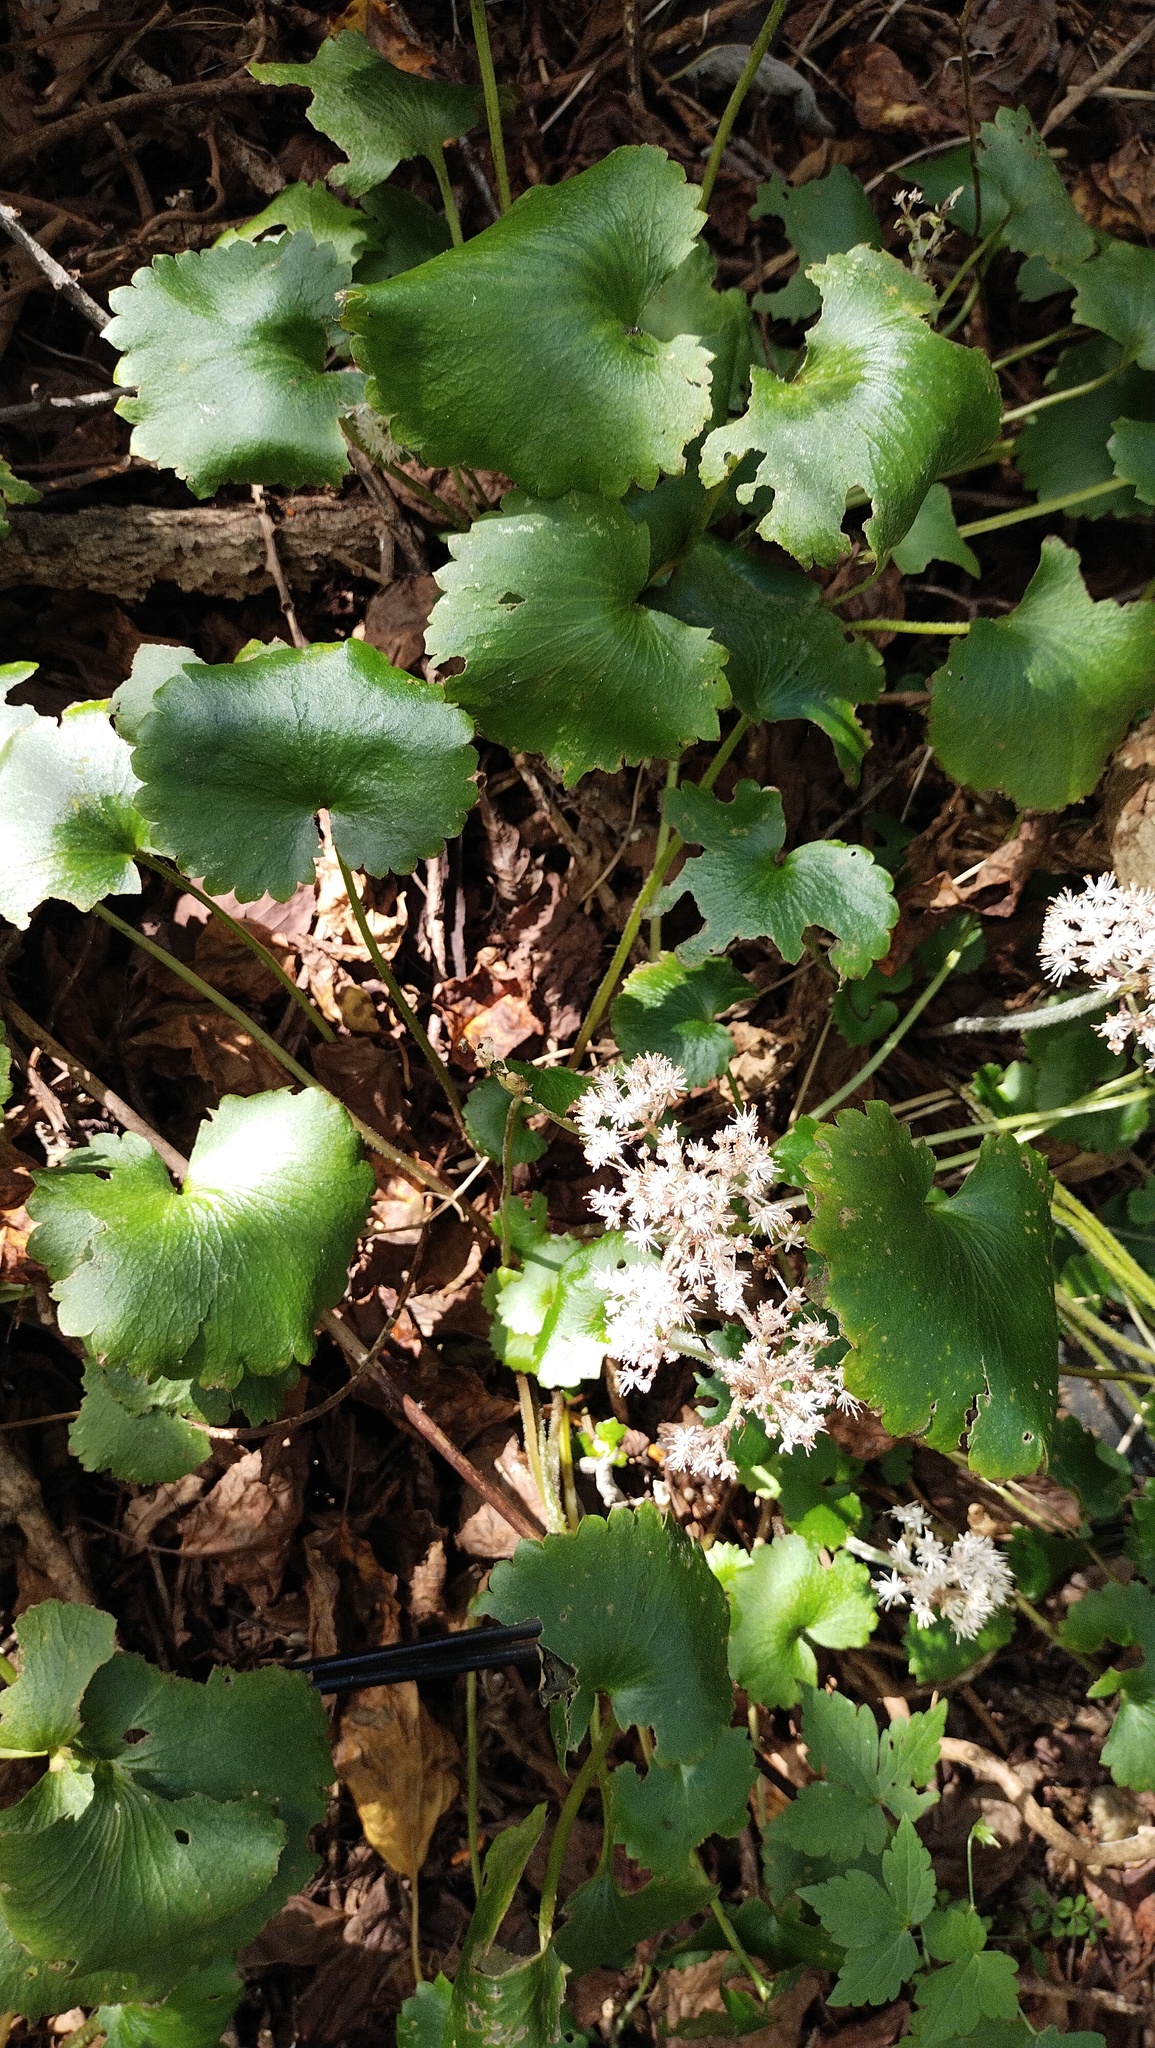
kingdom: Plantae
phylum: Tracheophyta
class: Magnoliopsida
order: Saxifragales
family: Saxifragaceae
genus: Micranthes
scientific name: Micranthes manchuriensis
